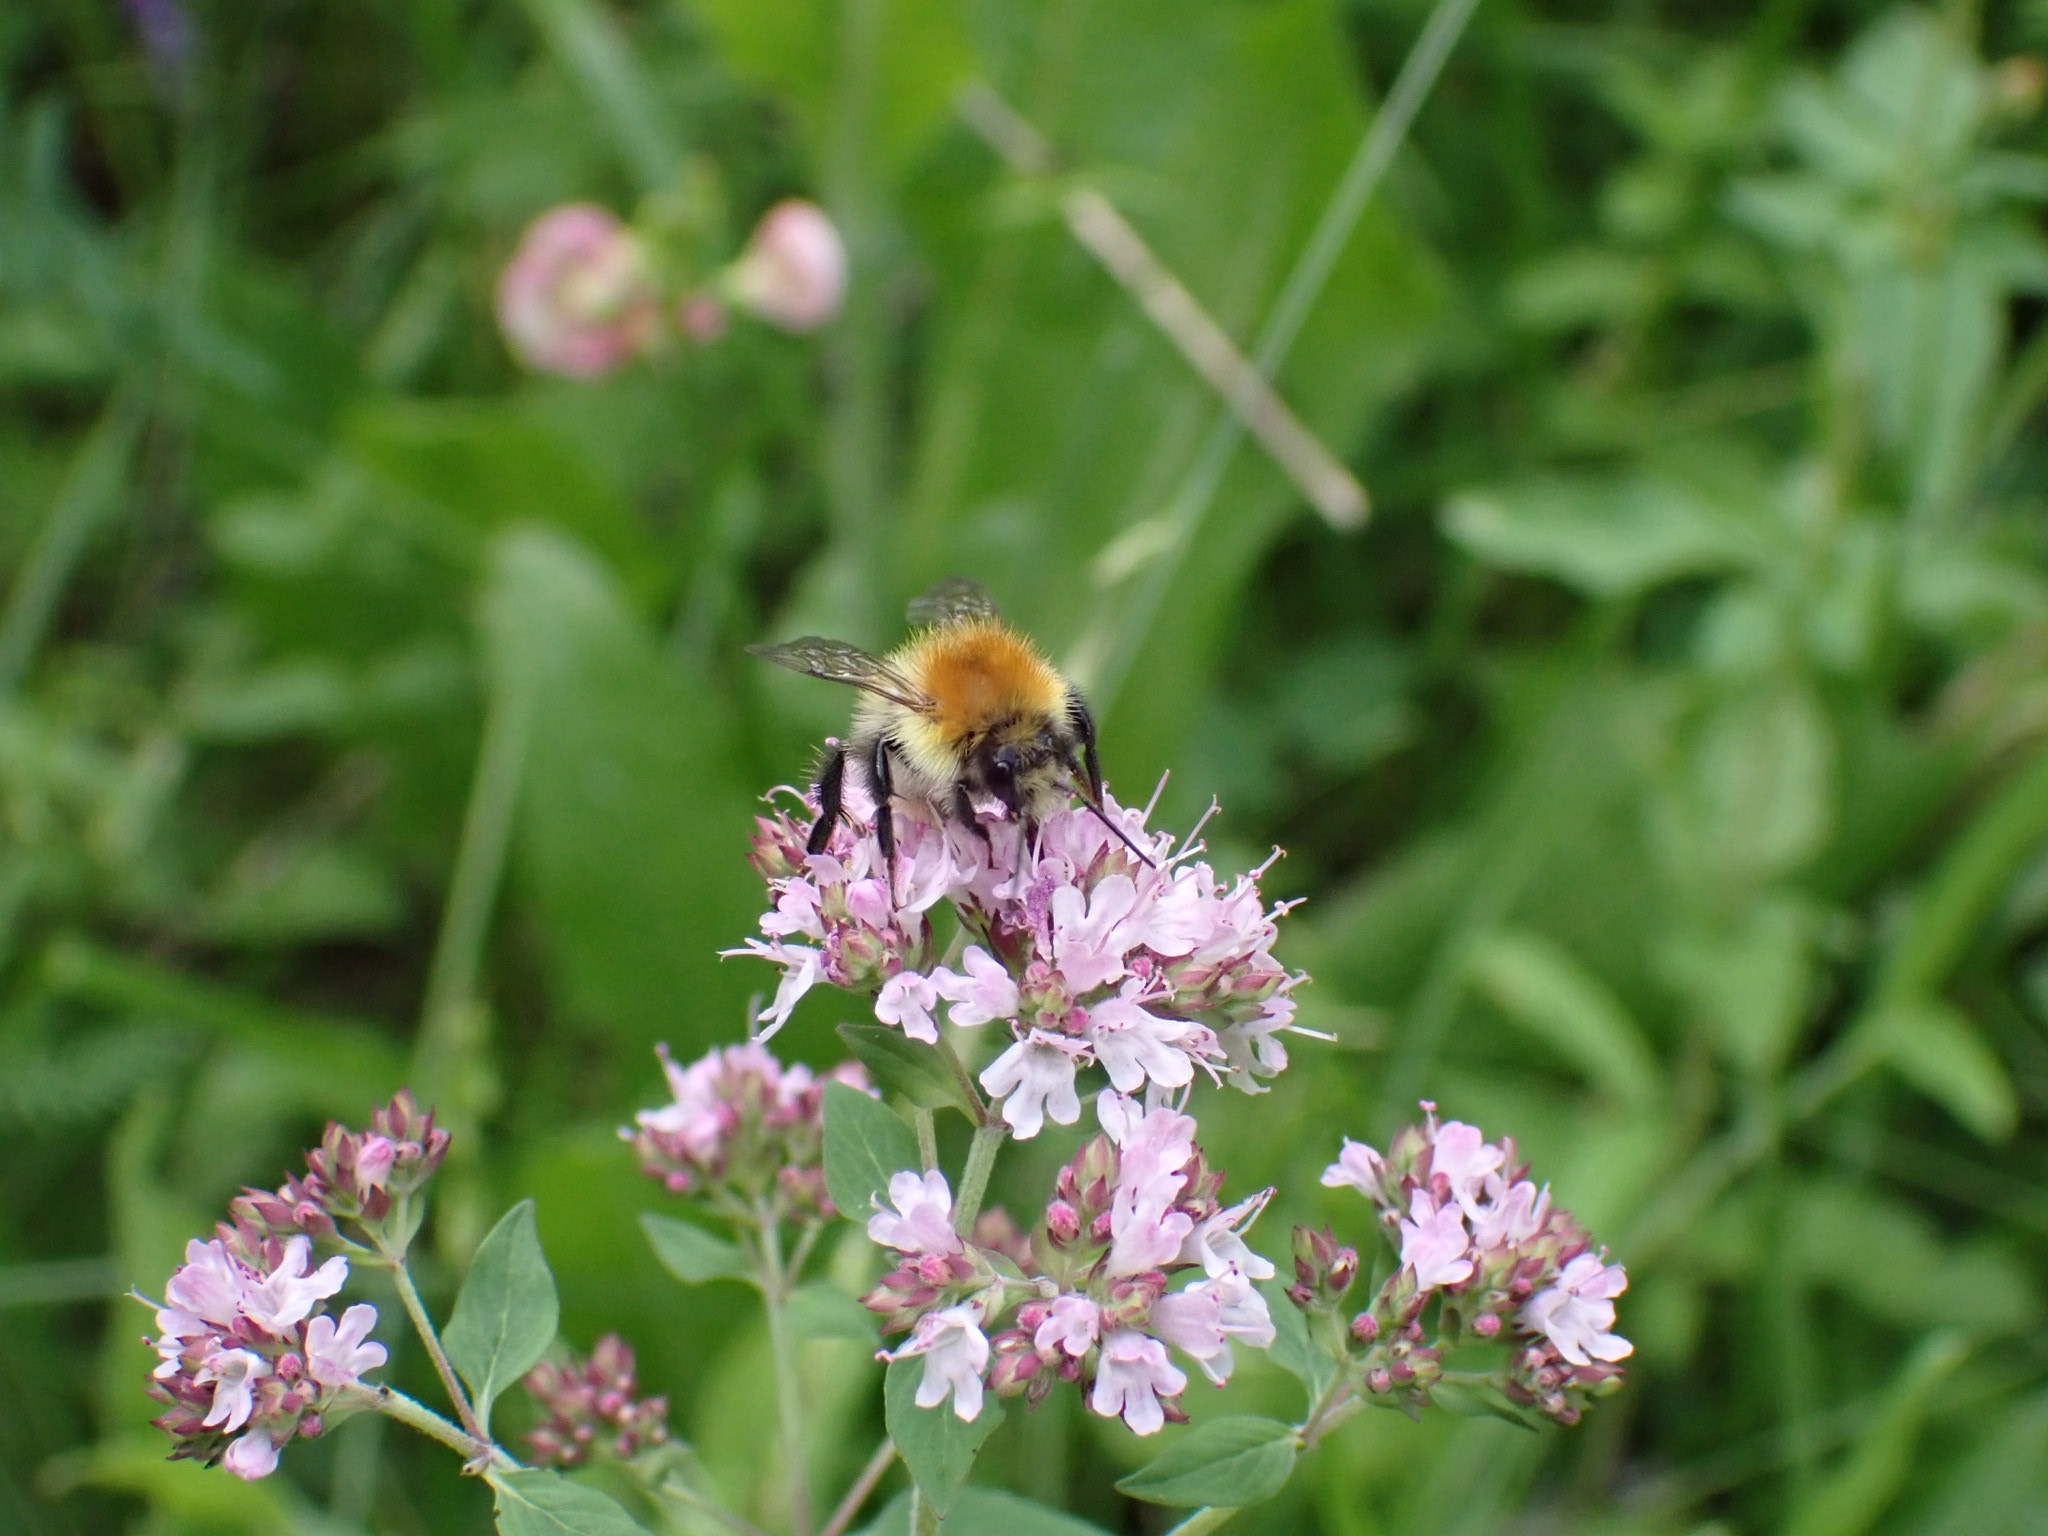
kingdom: Animalia
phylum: Arthropoda
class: Insecta
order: Hymenoptera
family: Apidae
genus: Bombus
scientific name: Bombus pascuorum
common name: Common carder bee
